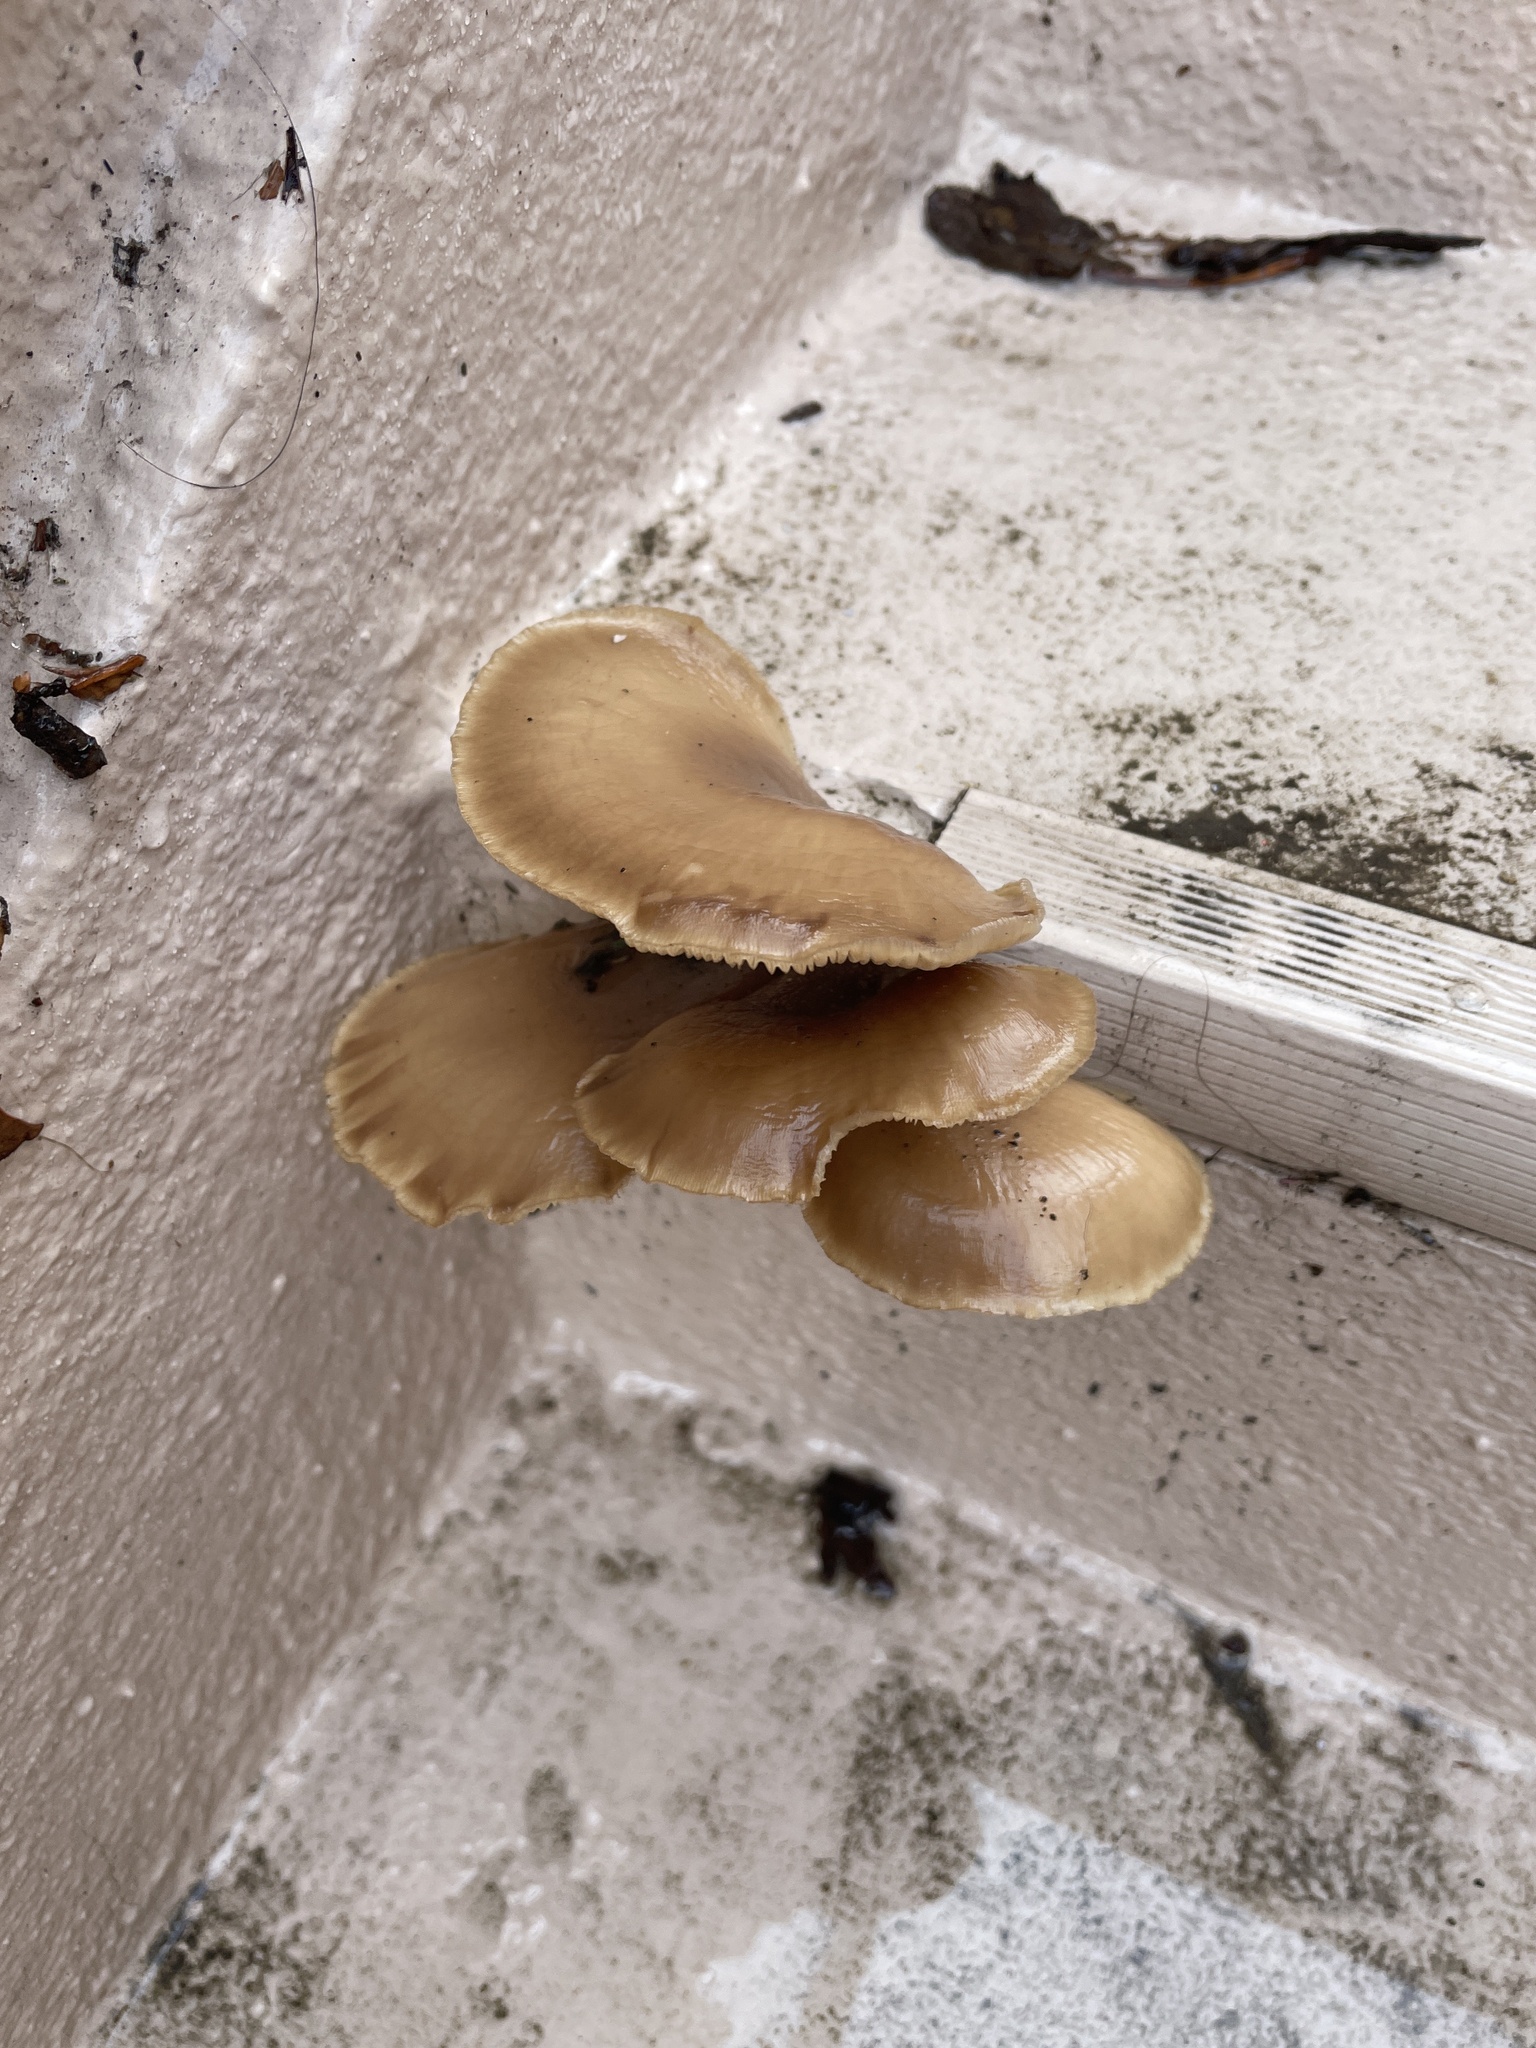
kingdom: Fungi
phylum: Basidiomycota
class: Agaricomycetes
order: Agaricales
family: Pleurotaceae
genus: Hohenbuehelia
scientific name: Hohenbuehelia petaloides
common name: Shoehorn oyster
